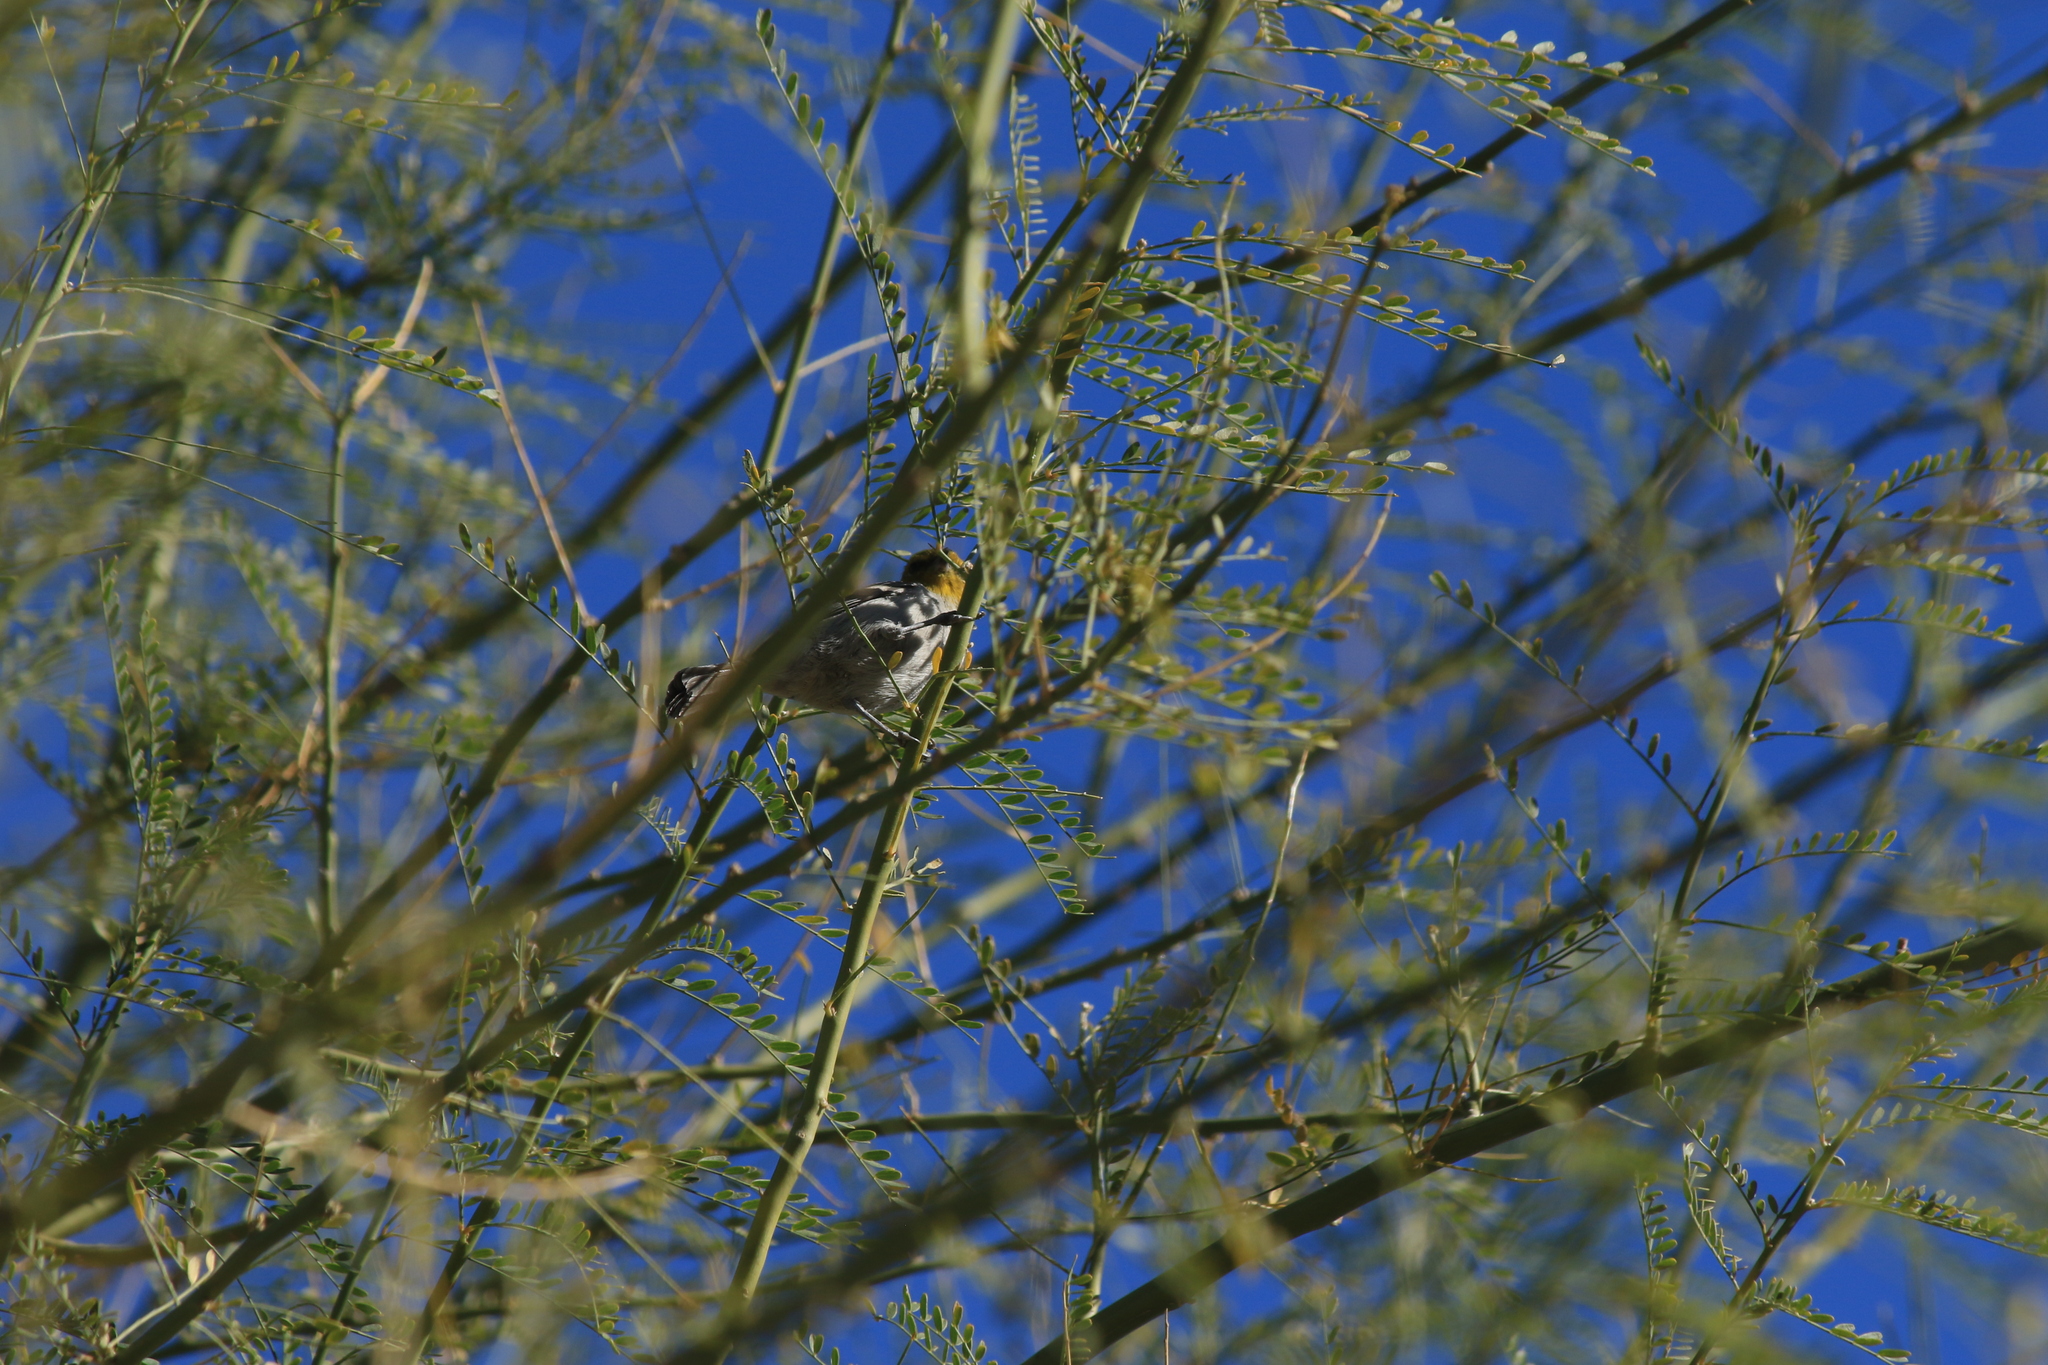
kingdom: Animalia
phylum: Chordata
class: Aves
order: Passeriformes
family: Remizidae
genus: Auriparus
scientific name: Auriparus flaviceps
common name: Verdin
